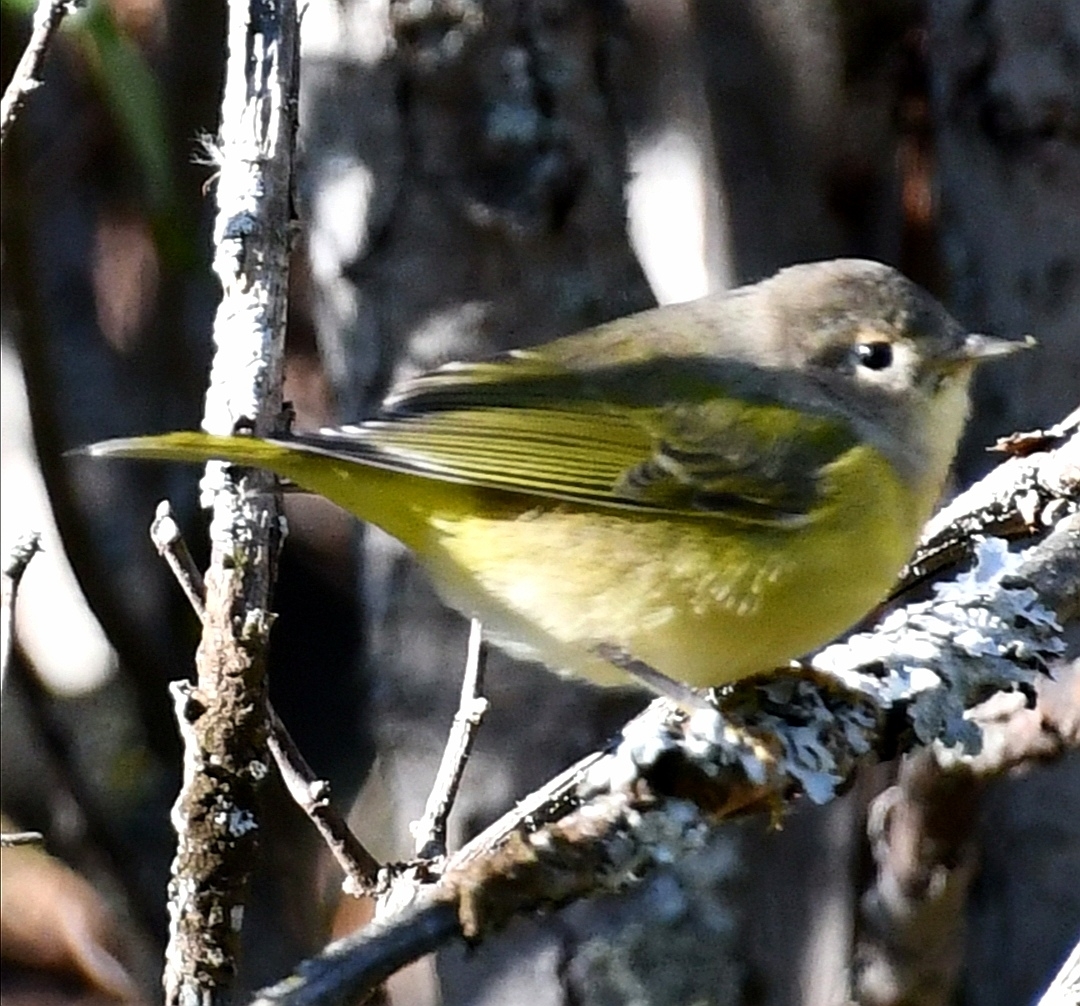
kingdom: Animalia
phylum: Chordata
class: Aves
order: Passeriformes
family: Parulidae
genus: Leiothlypis
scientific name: Leiothlypis ruficapilla
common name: Nashville warbler
